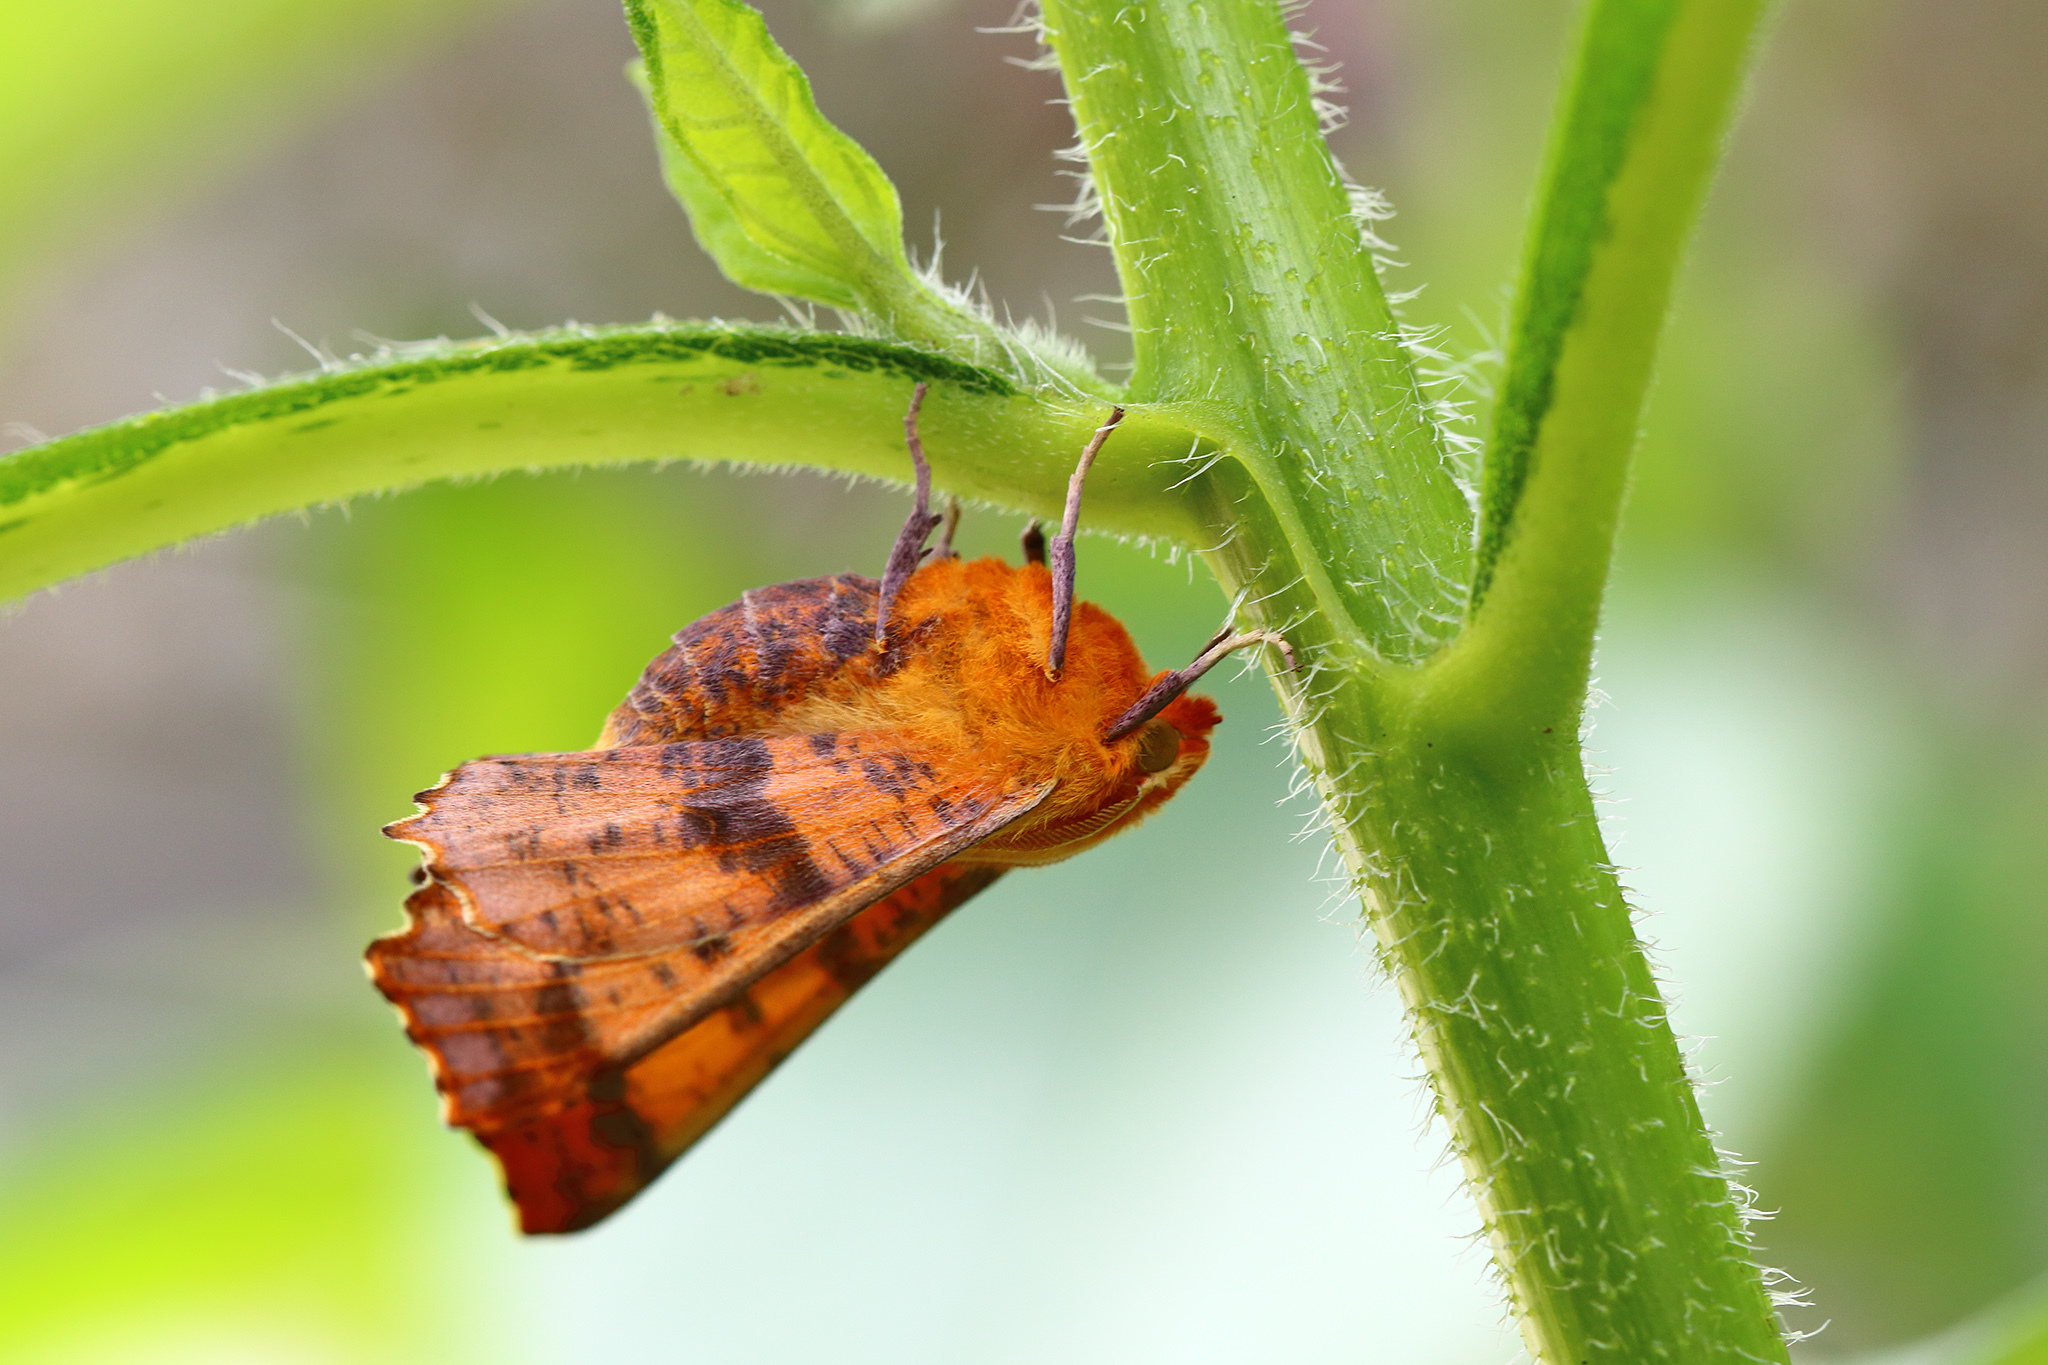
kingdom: Animalia
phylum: Arthropoda
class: Insecta
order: Lepidoptera
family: Geometridae
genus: Ennomos
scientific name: Ennomos autumnaria
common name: Large thorn
